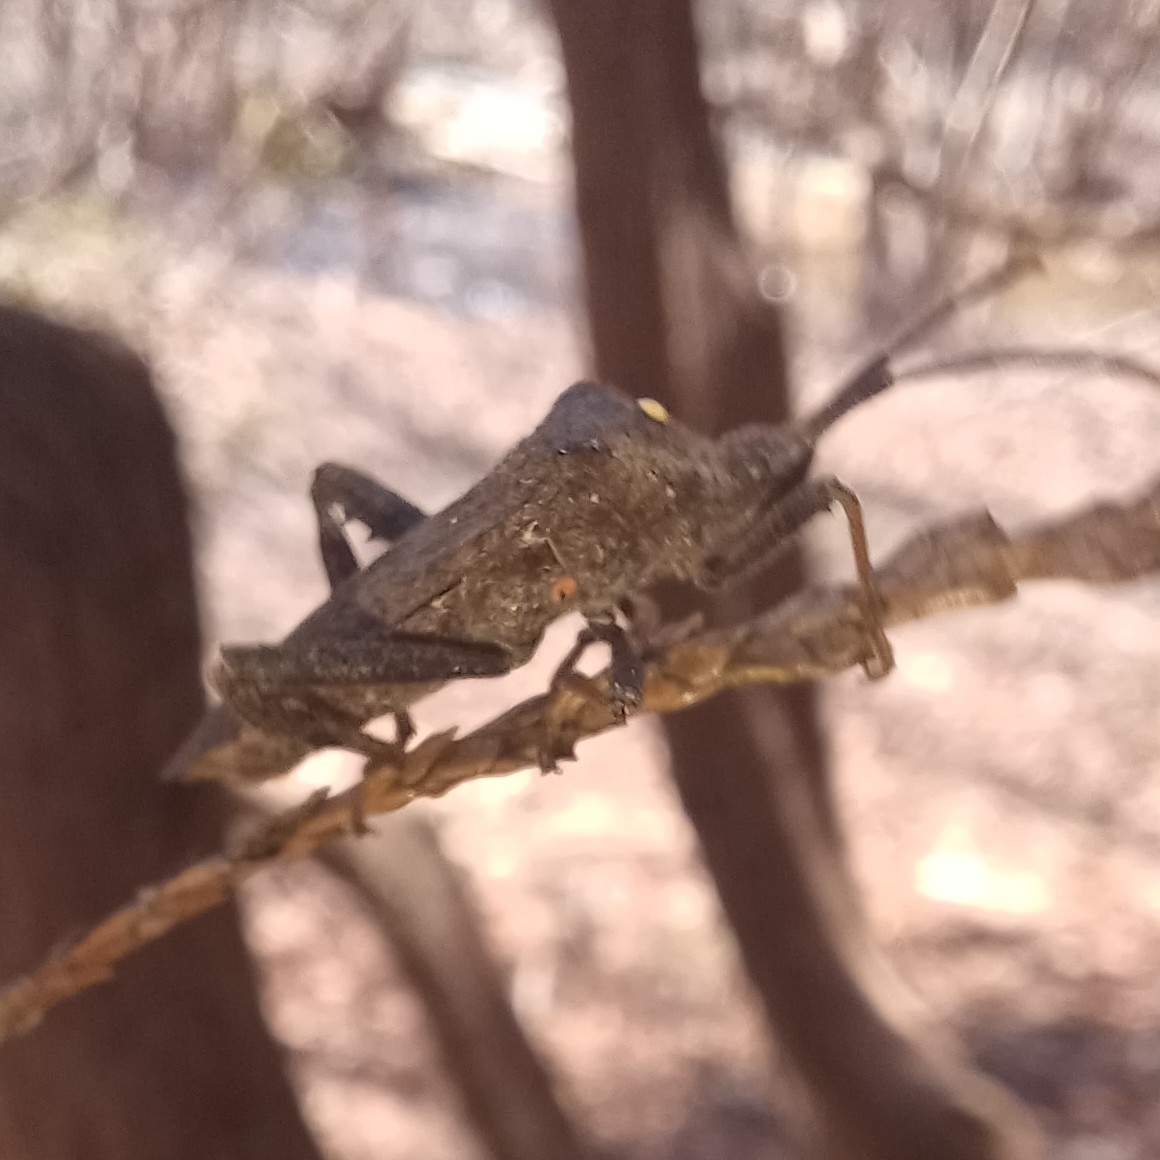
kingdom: Animalia
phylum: Arthropoda
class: Insecta
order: Hemiptera
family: Coreidae
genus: Acanthocephala
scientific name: Acanthocephala terminalis
